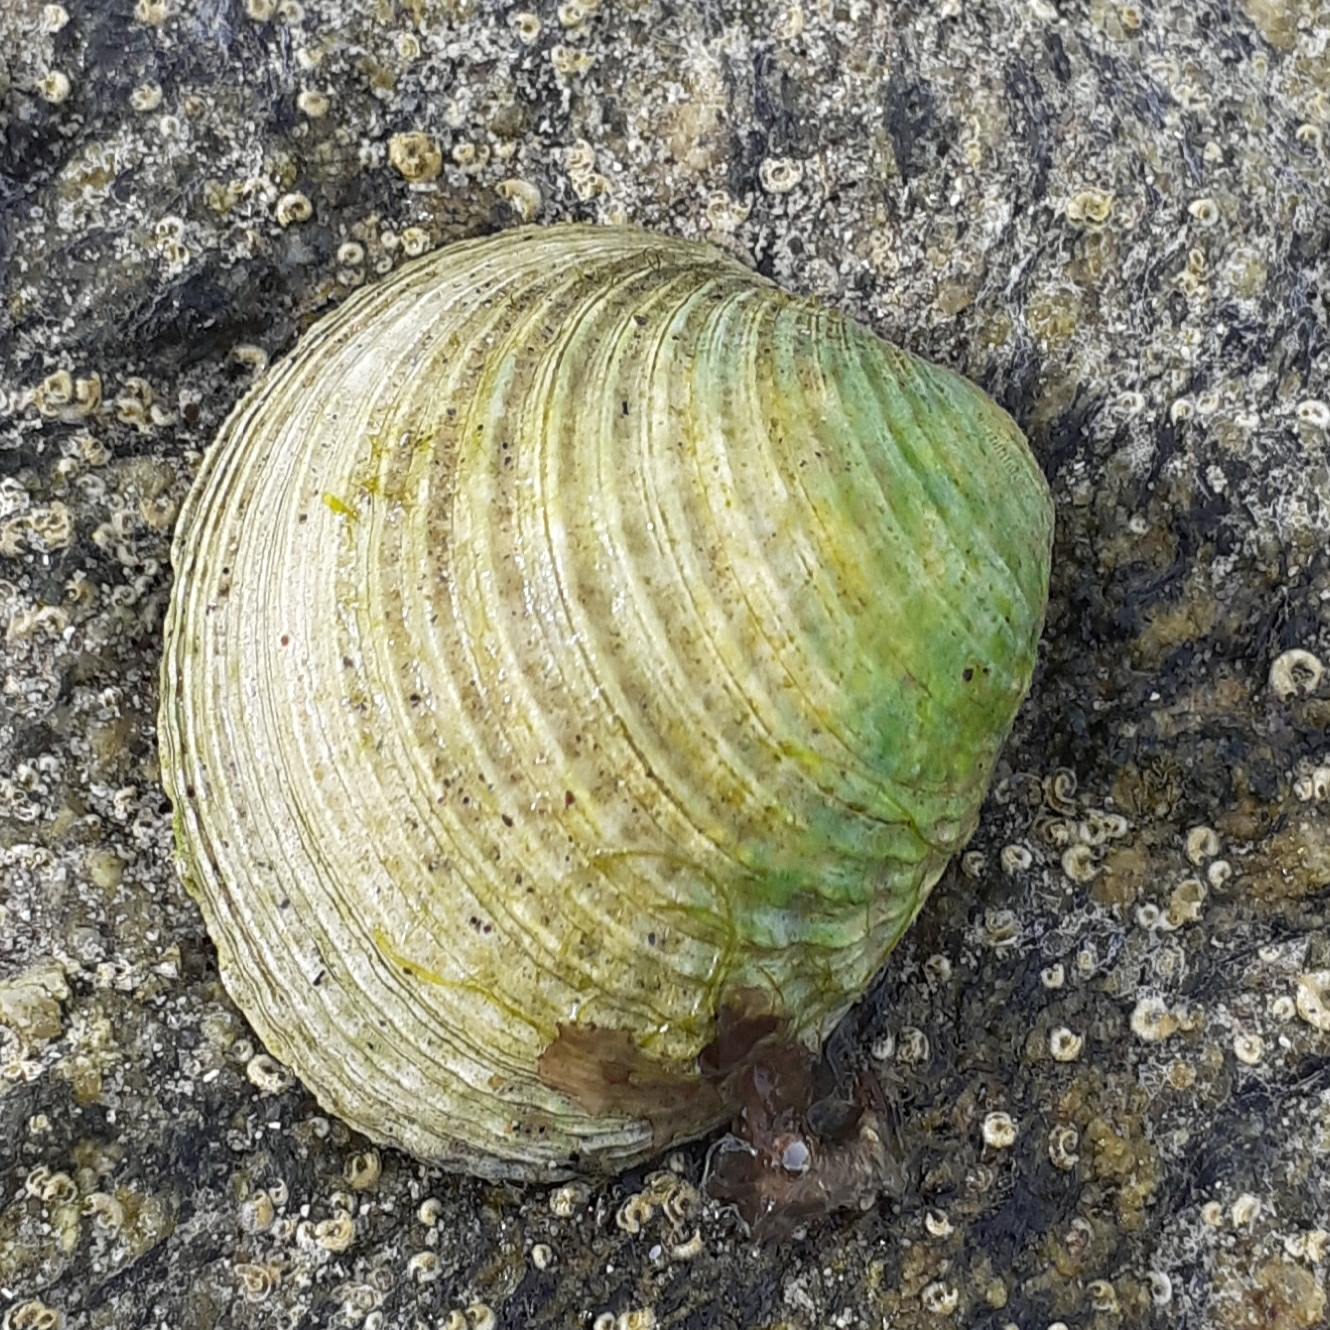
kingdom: Animalia
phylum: Mollusca
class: Bivalvia
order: Venerida
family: Veneridae
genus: Venus
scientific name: Venus verrucosa
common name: Warty venus
